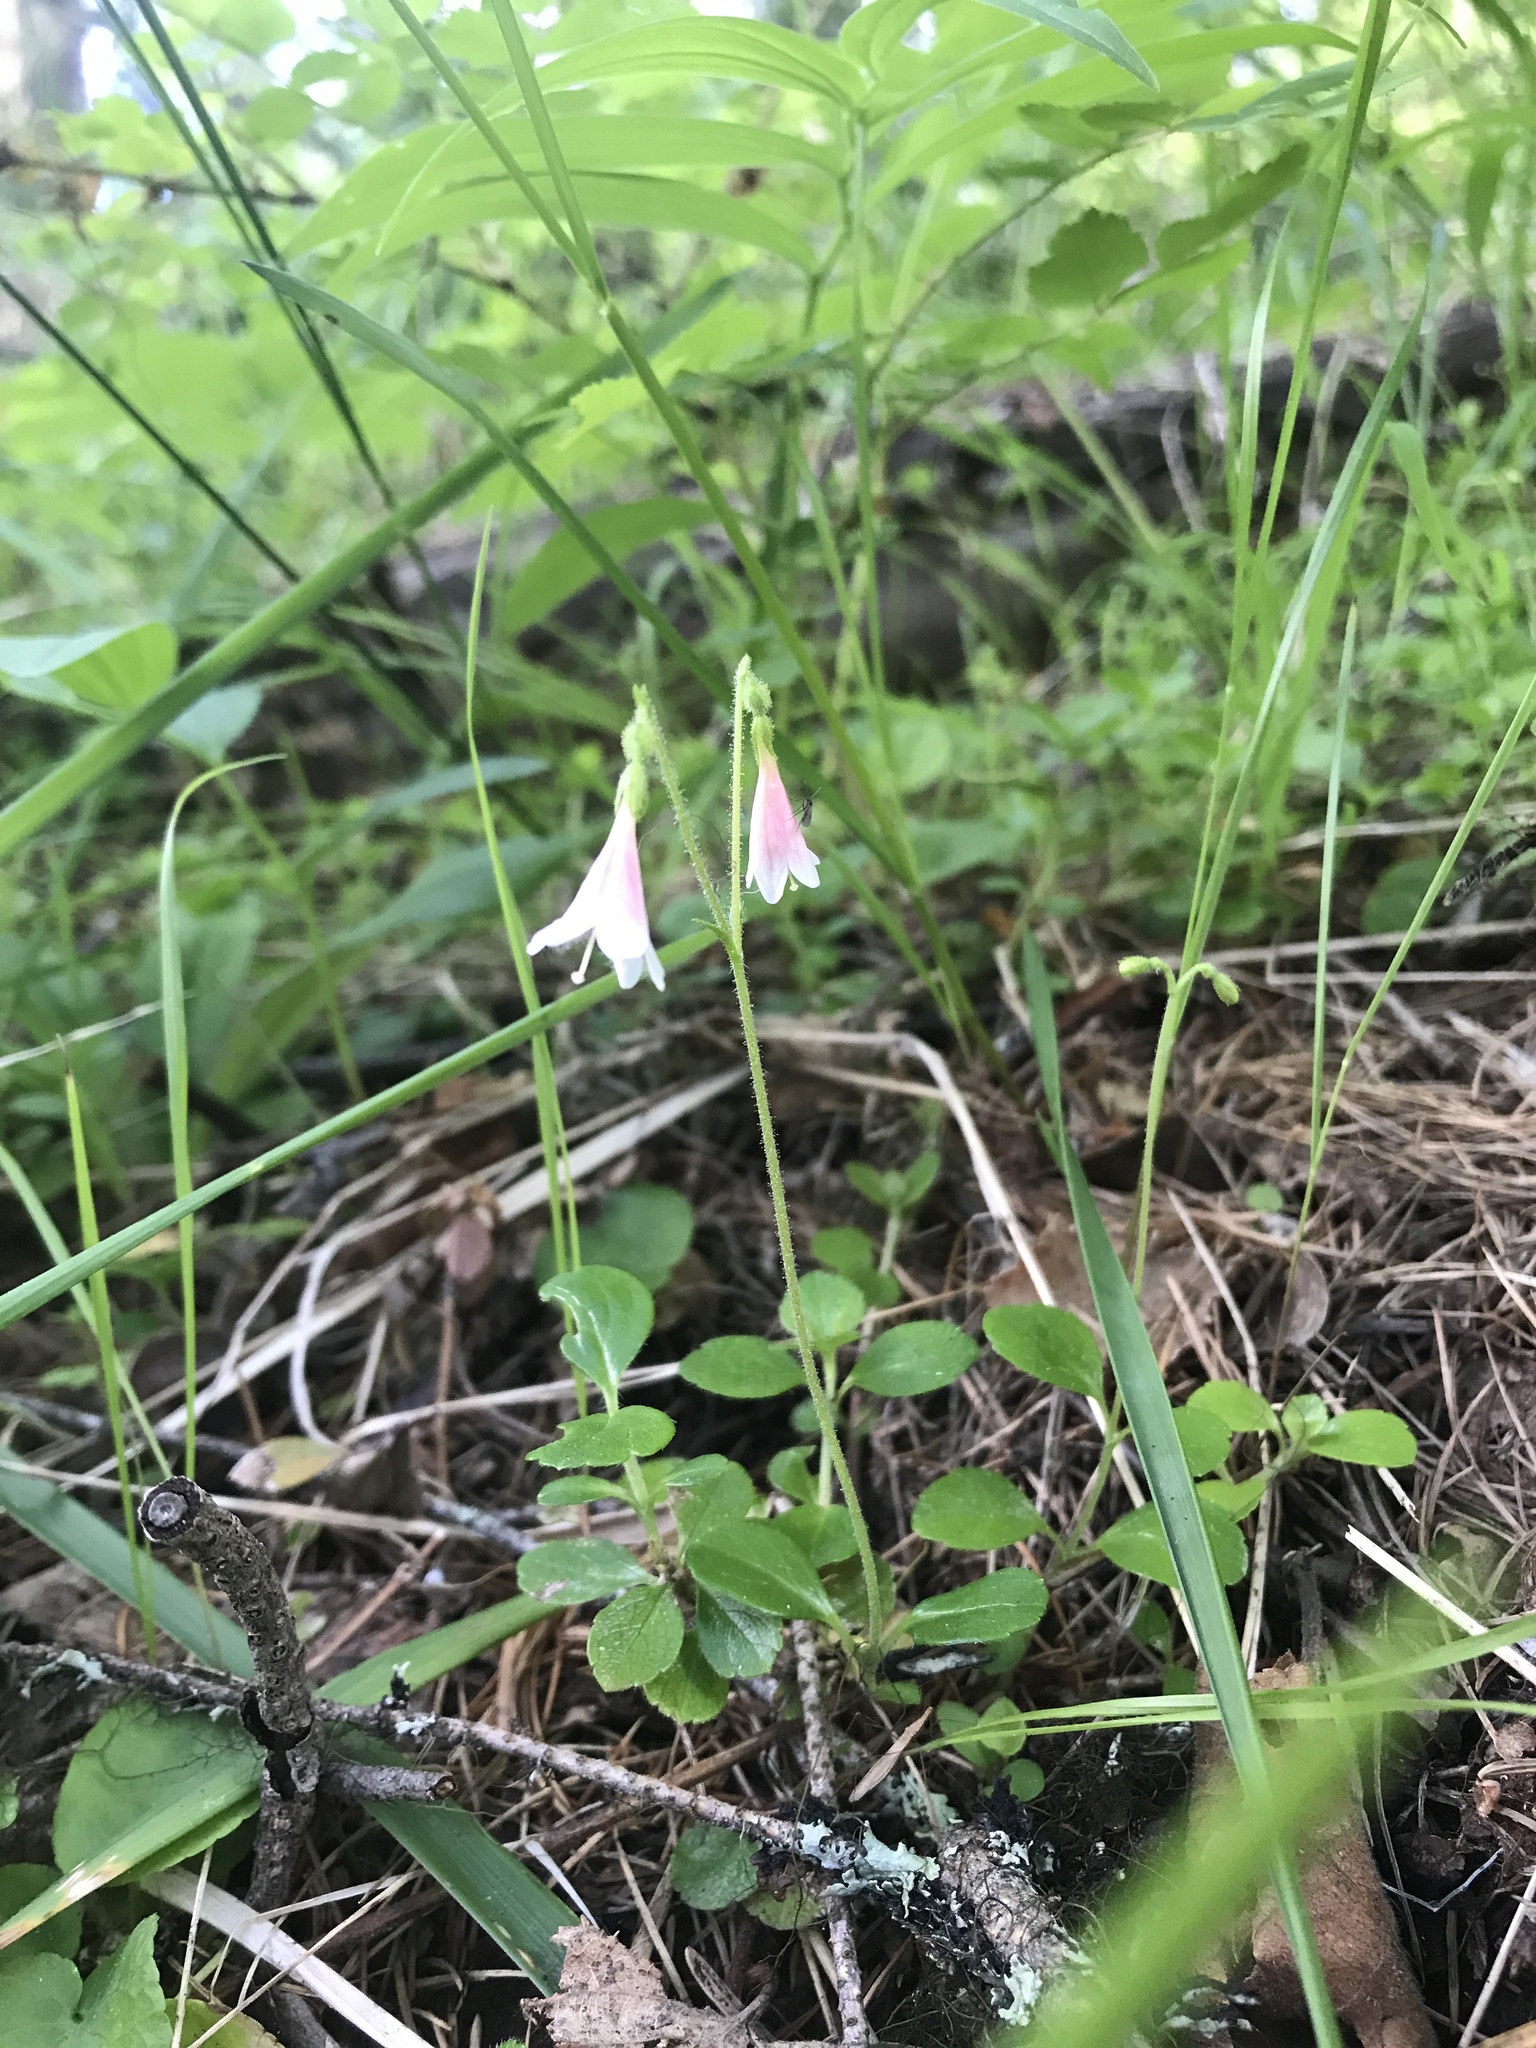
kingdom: Plantae
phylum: Tracheophyta
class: Magnoliopsida
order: Dipsacales
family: Caprifoliaceae
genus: Linnaea
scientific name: Linnaea borealis
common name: Twinflower
